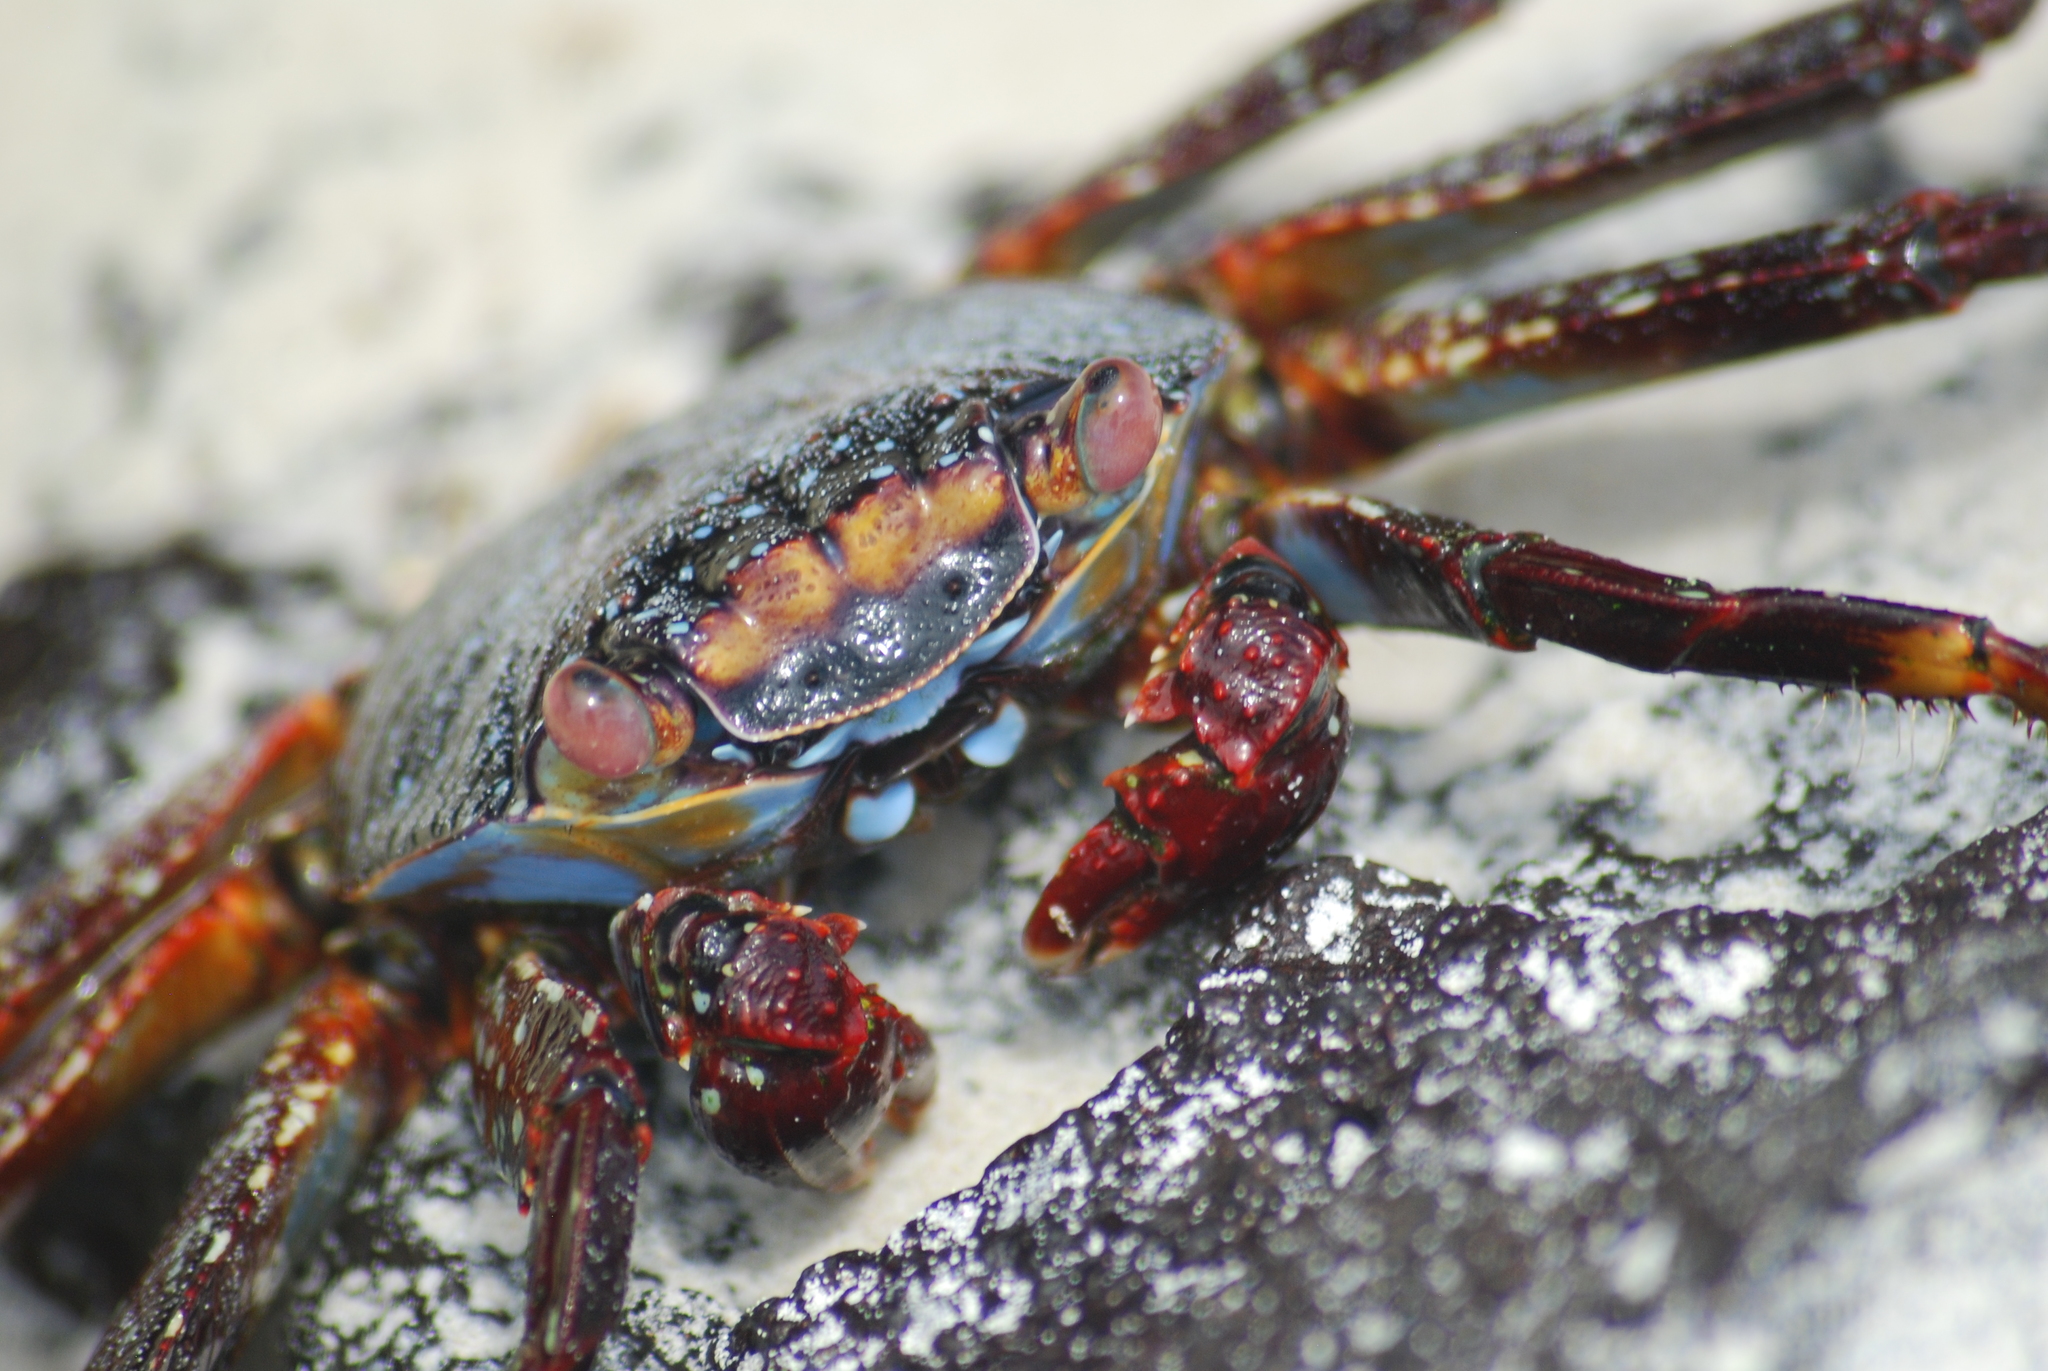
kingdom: Animalia
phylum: Arthropoda
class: Malacostraca
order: Decapoda
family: Grapsidae
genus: Grapsus
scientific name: Grapsus grapsus
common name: Sally lightfoot
